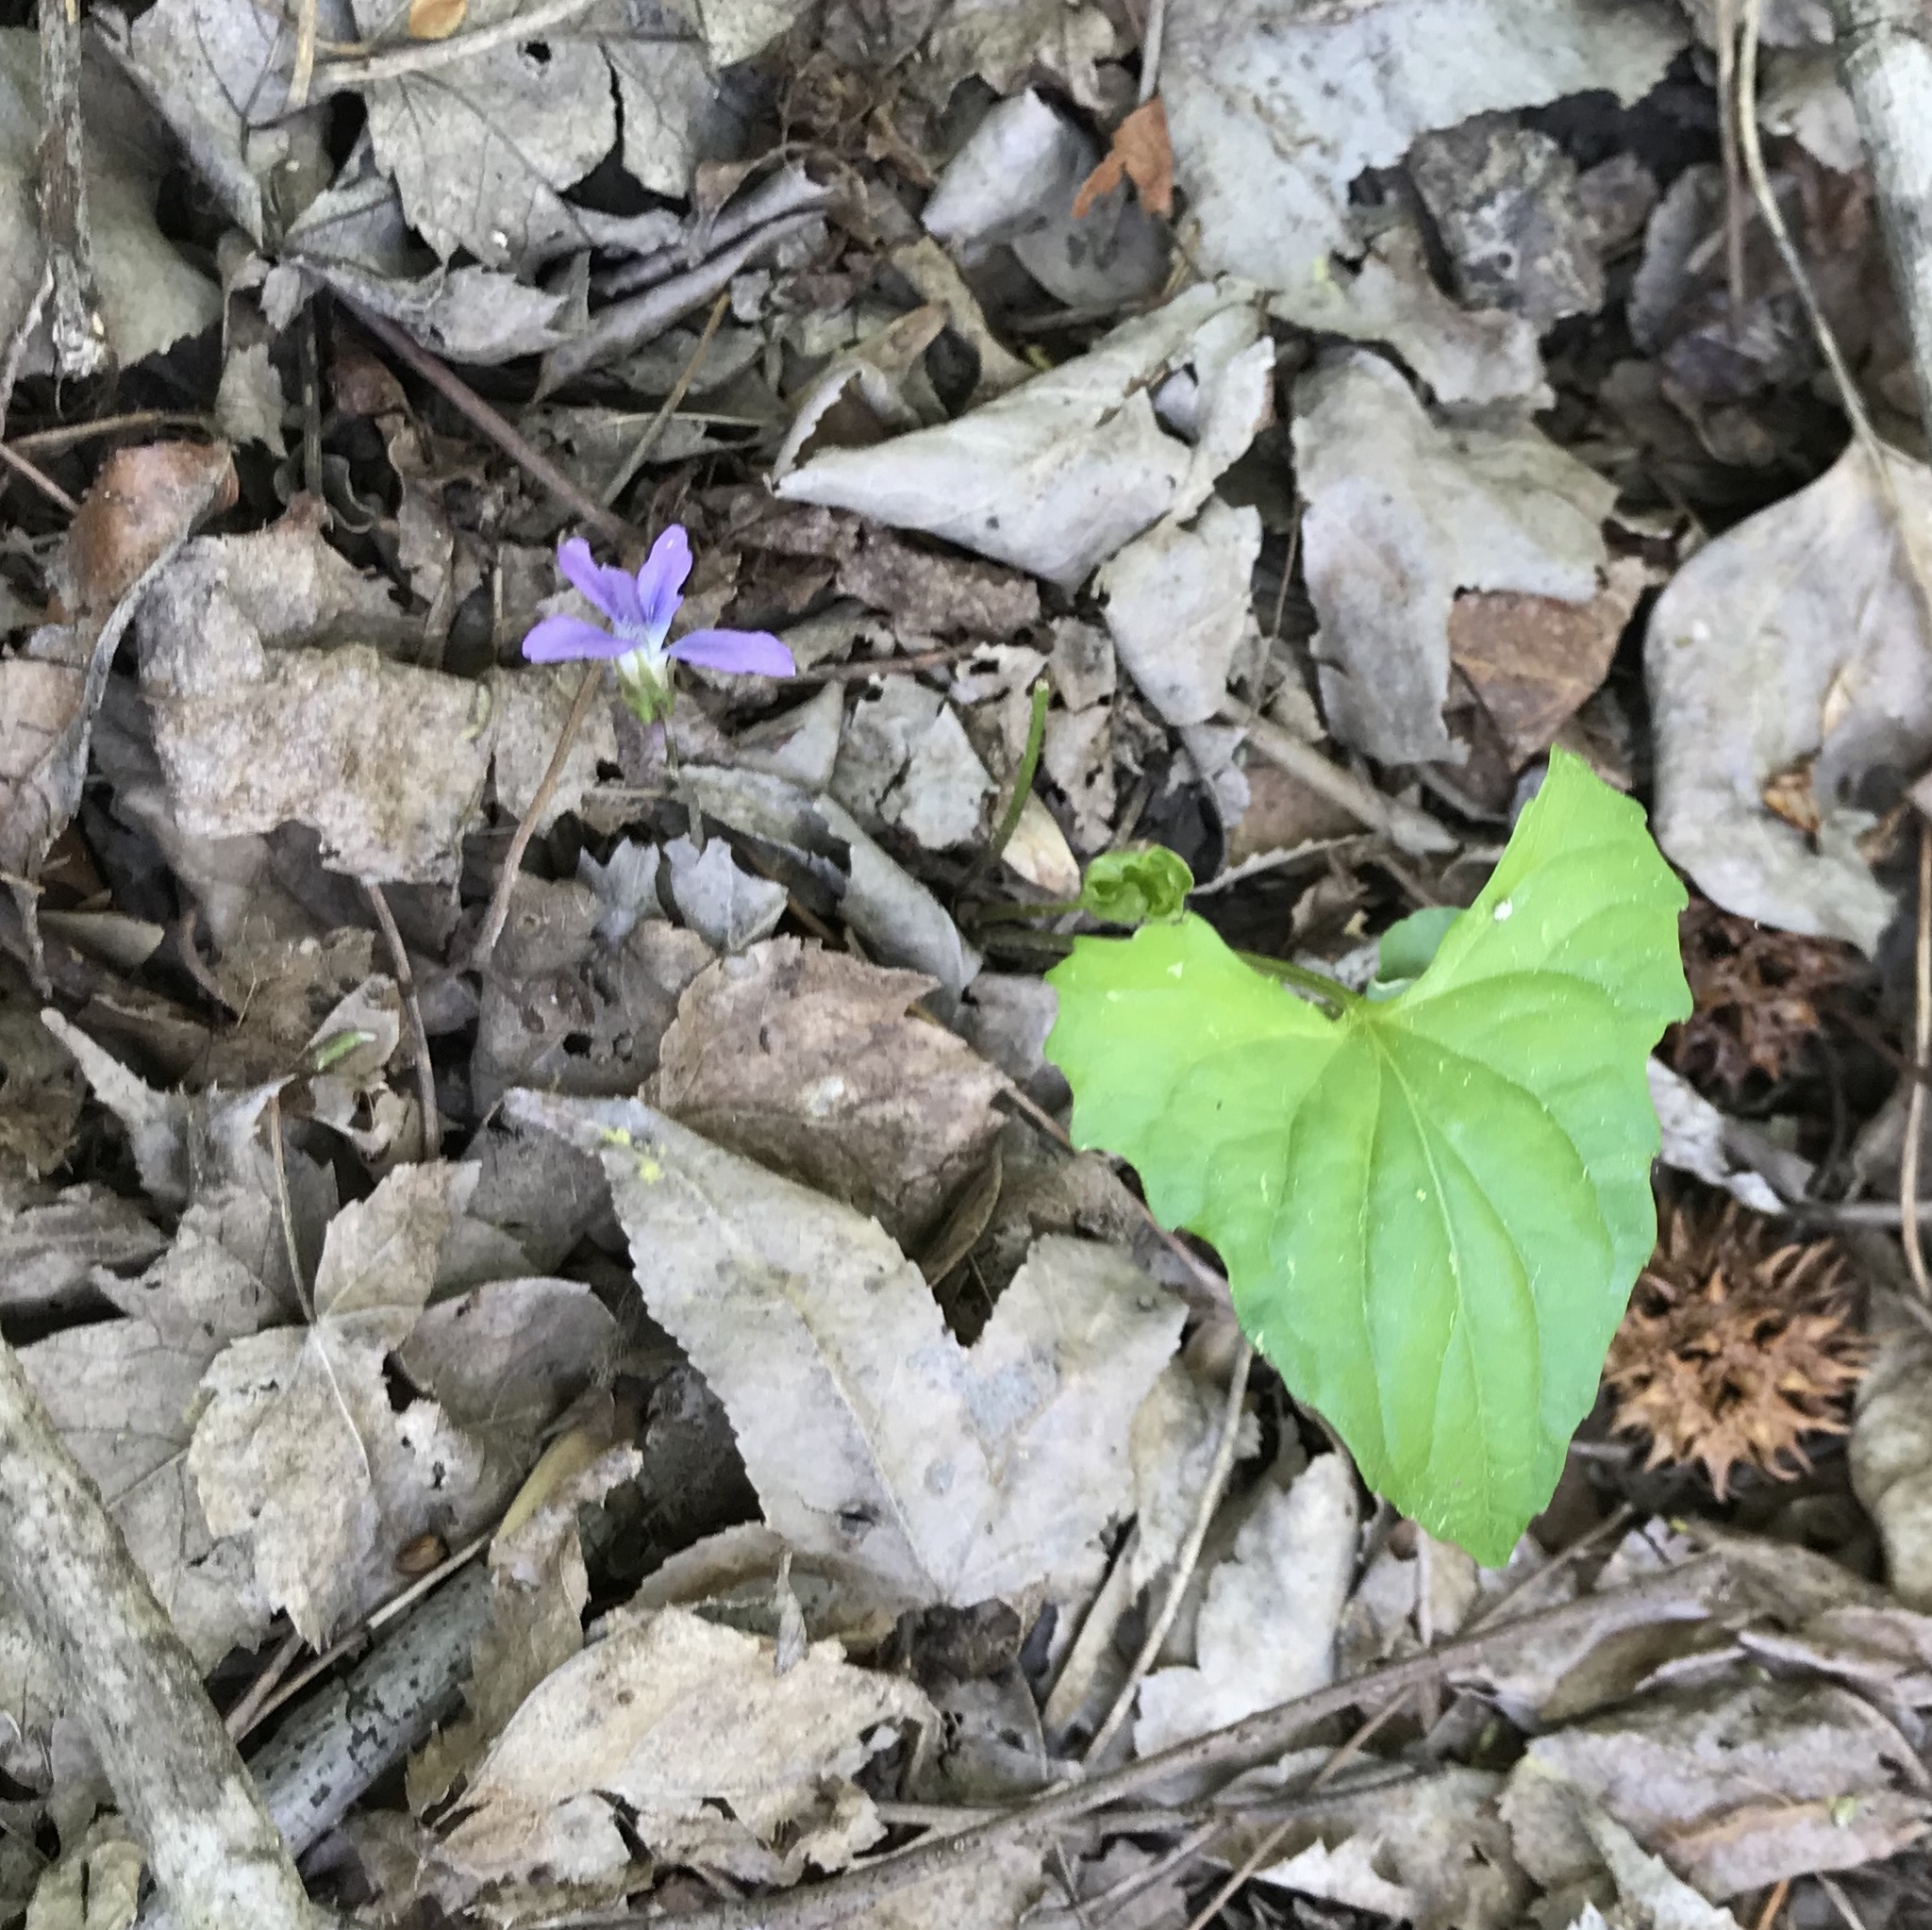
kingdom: Plantae
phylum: Tracheophyta
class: Magnoliopsida
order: Malpighiales
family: Violaceae
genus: Viola
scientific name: Viola sororia
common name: Dooryard violet
